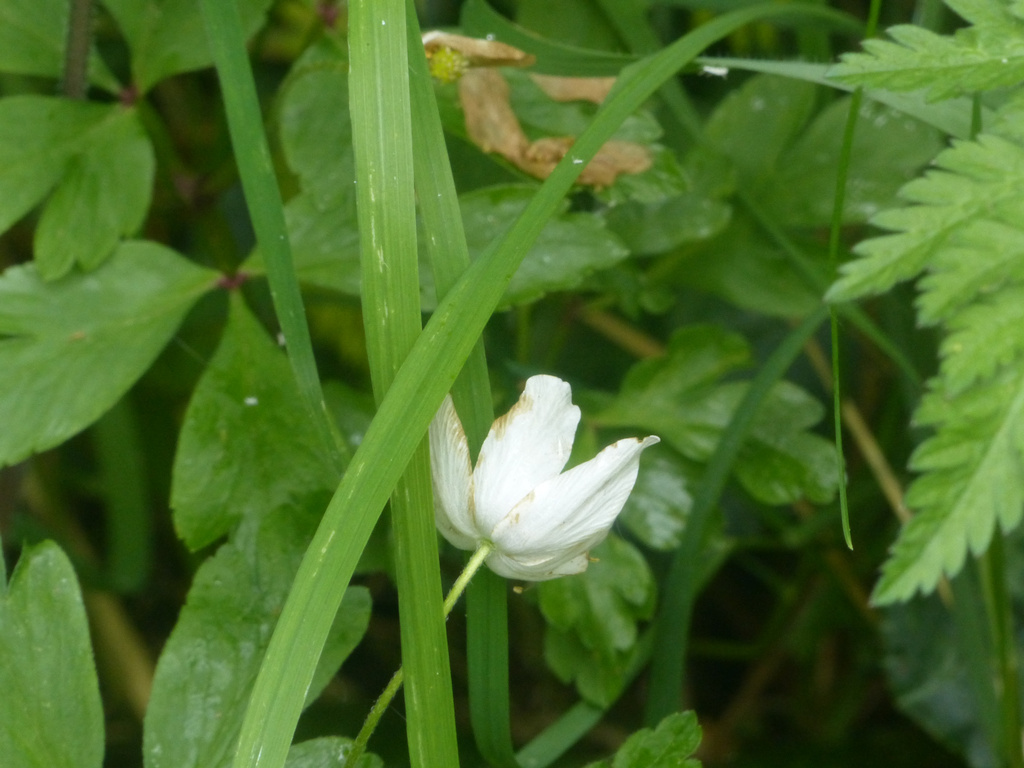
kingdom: Plantae
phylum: Tracheophyta
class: Magnoliopsida
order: Ranunculales
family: Ranunculaceae
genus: Anemone
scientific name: Anemone nemorosa
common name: Wood anemone
